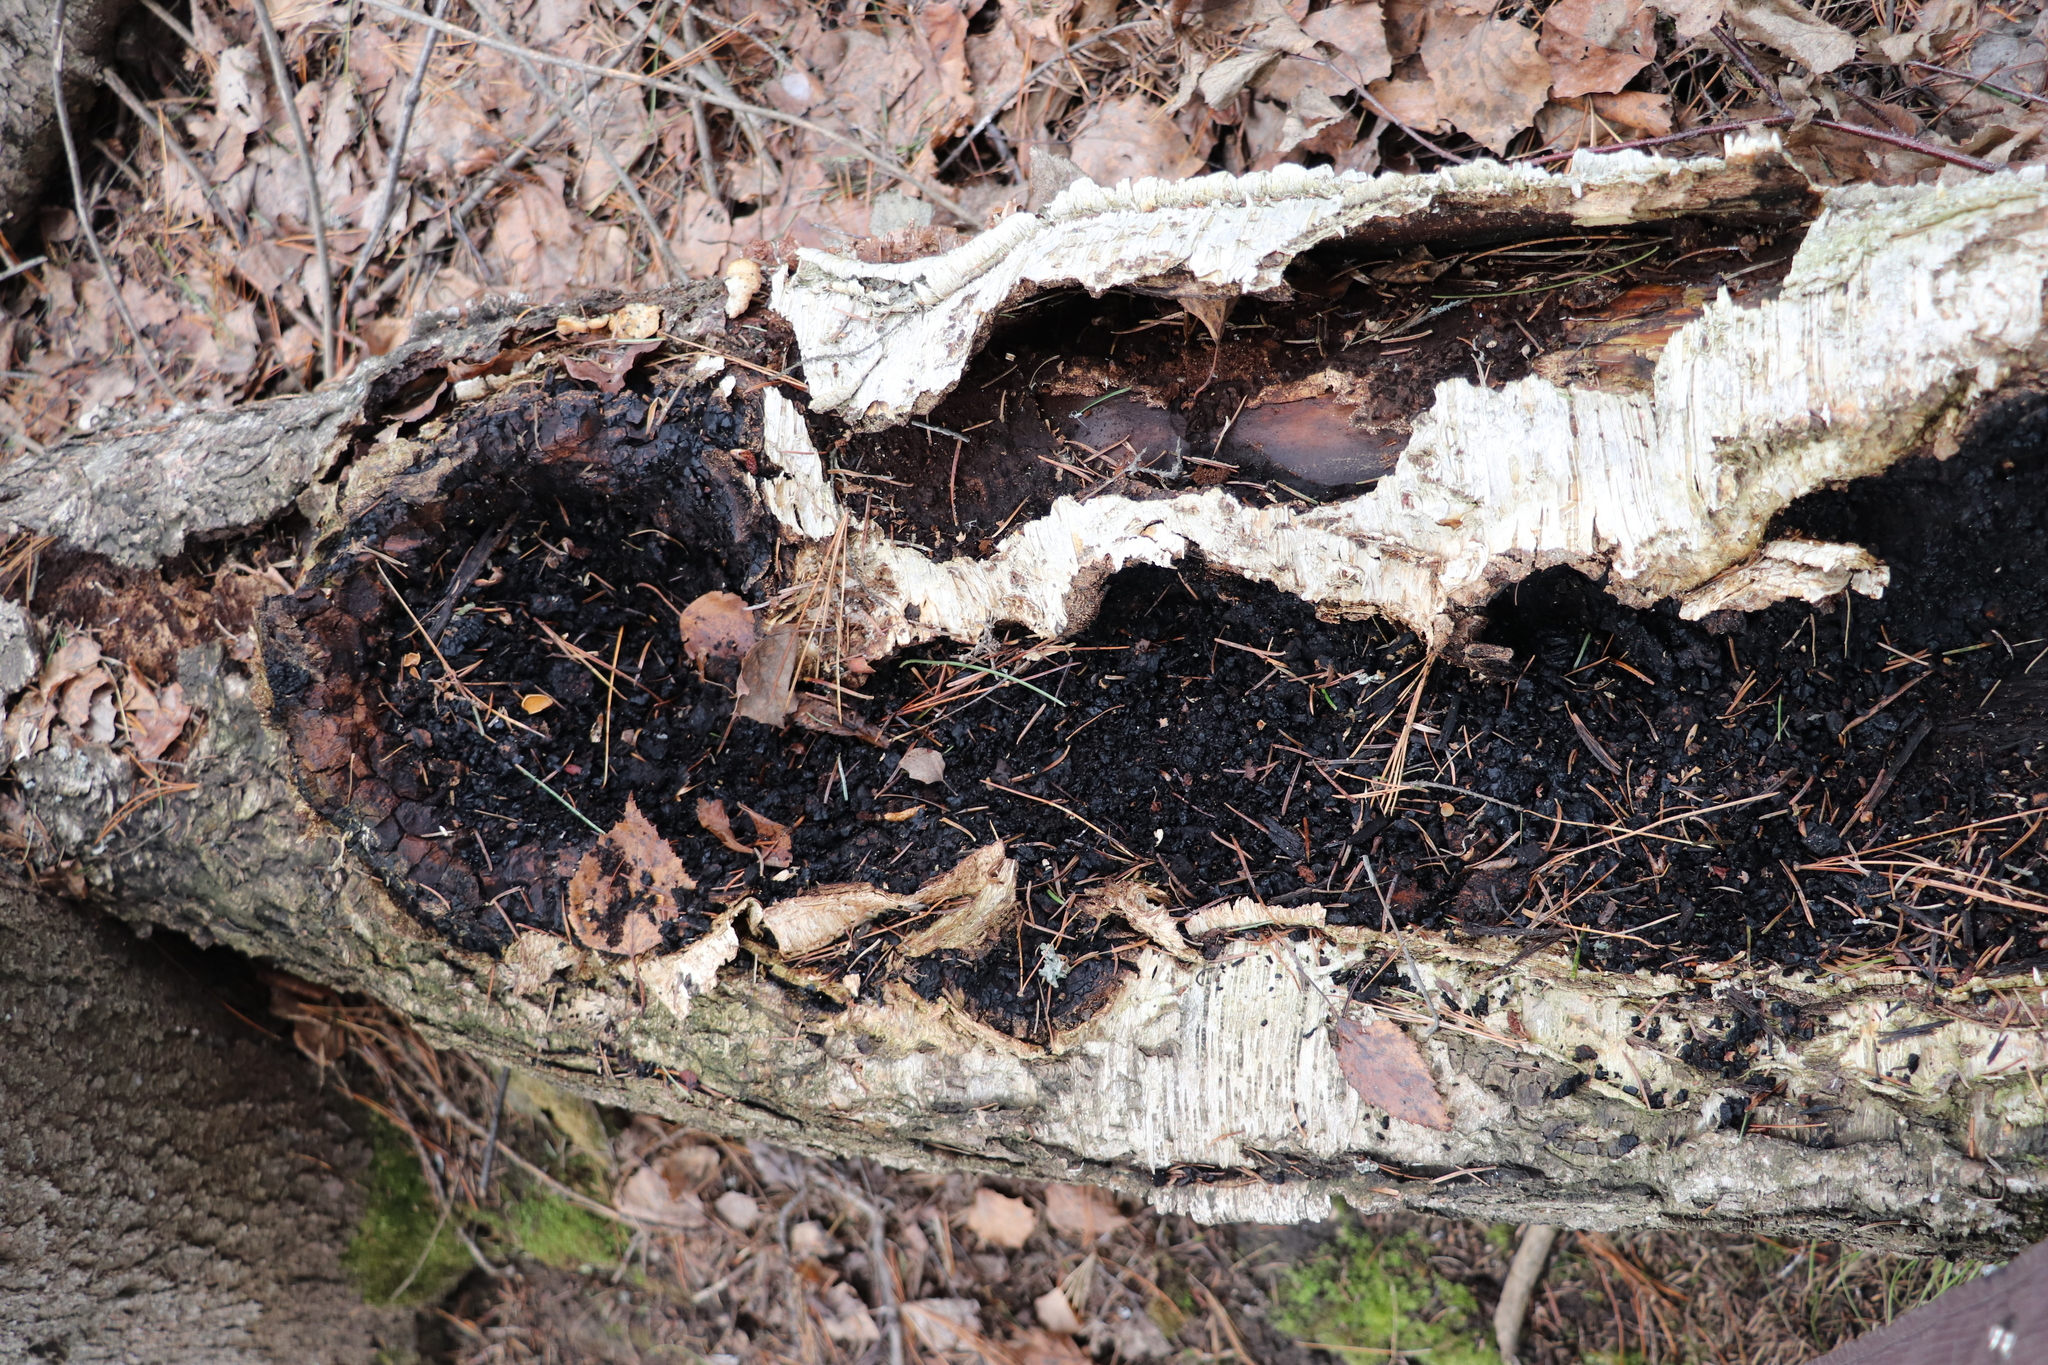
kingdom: Fungi
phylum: Basidiomycota
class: Agaricomycetes
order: Hymenochaetales
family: Hymenochaetaceae
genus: Inonotus
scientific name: Inonotus obliquus
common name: Chaga
